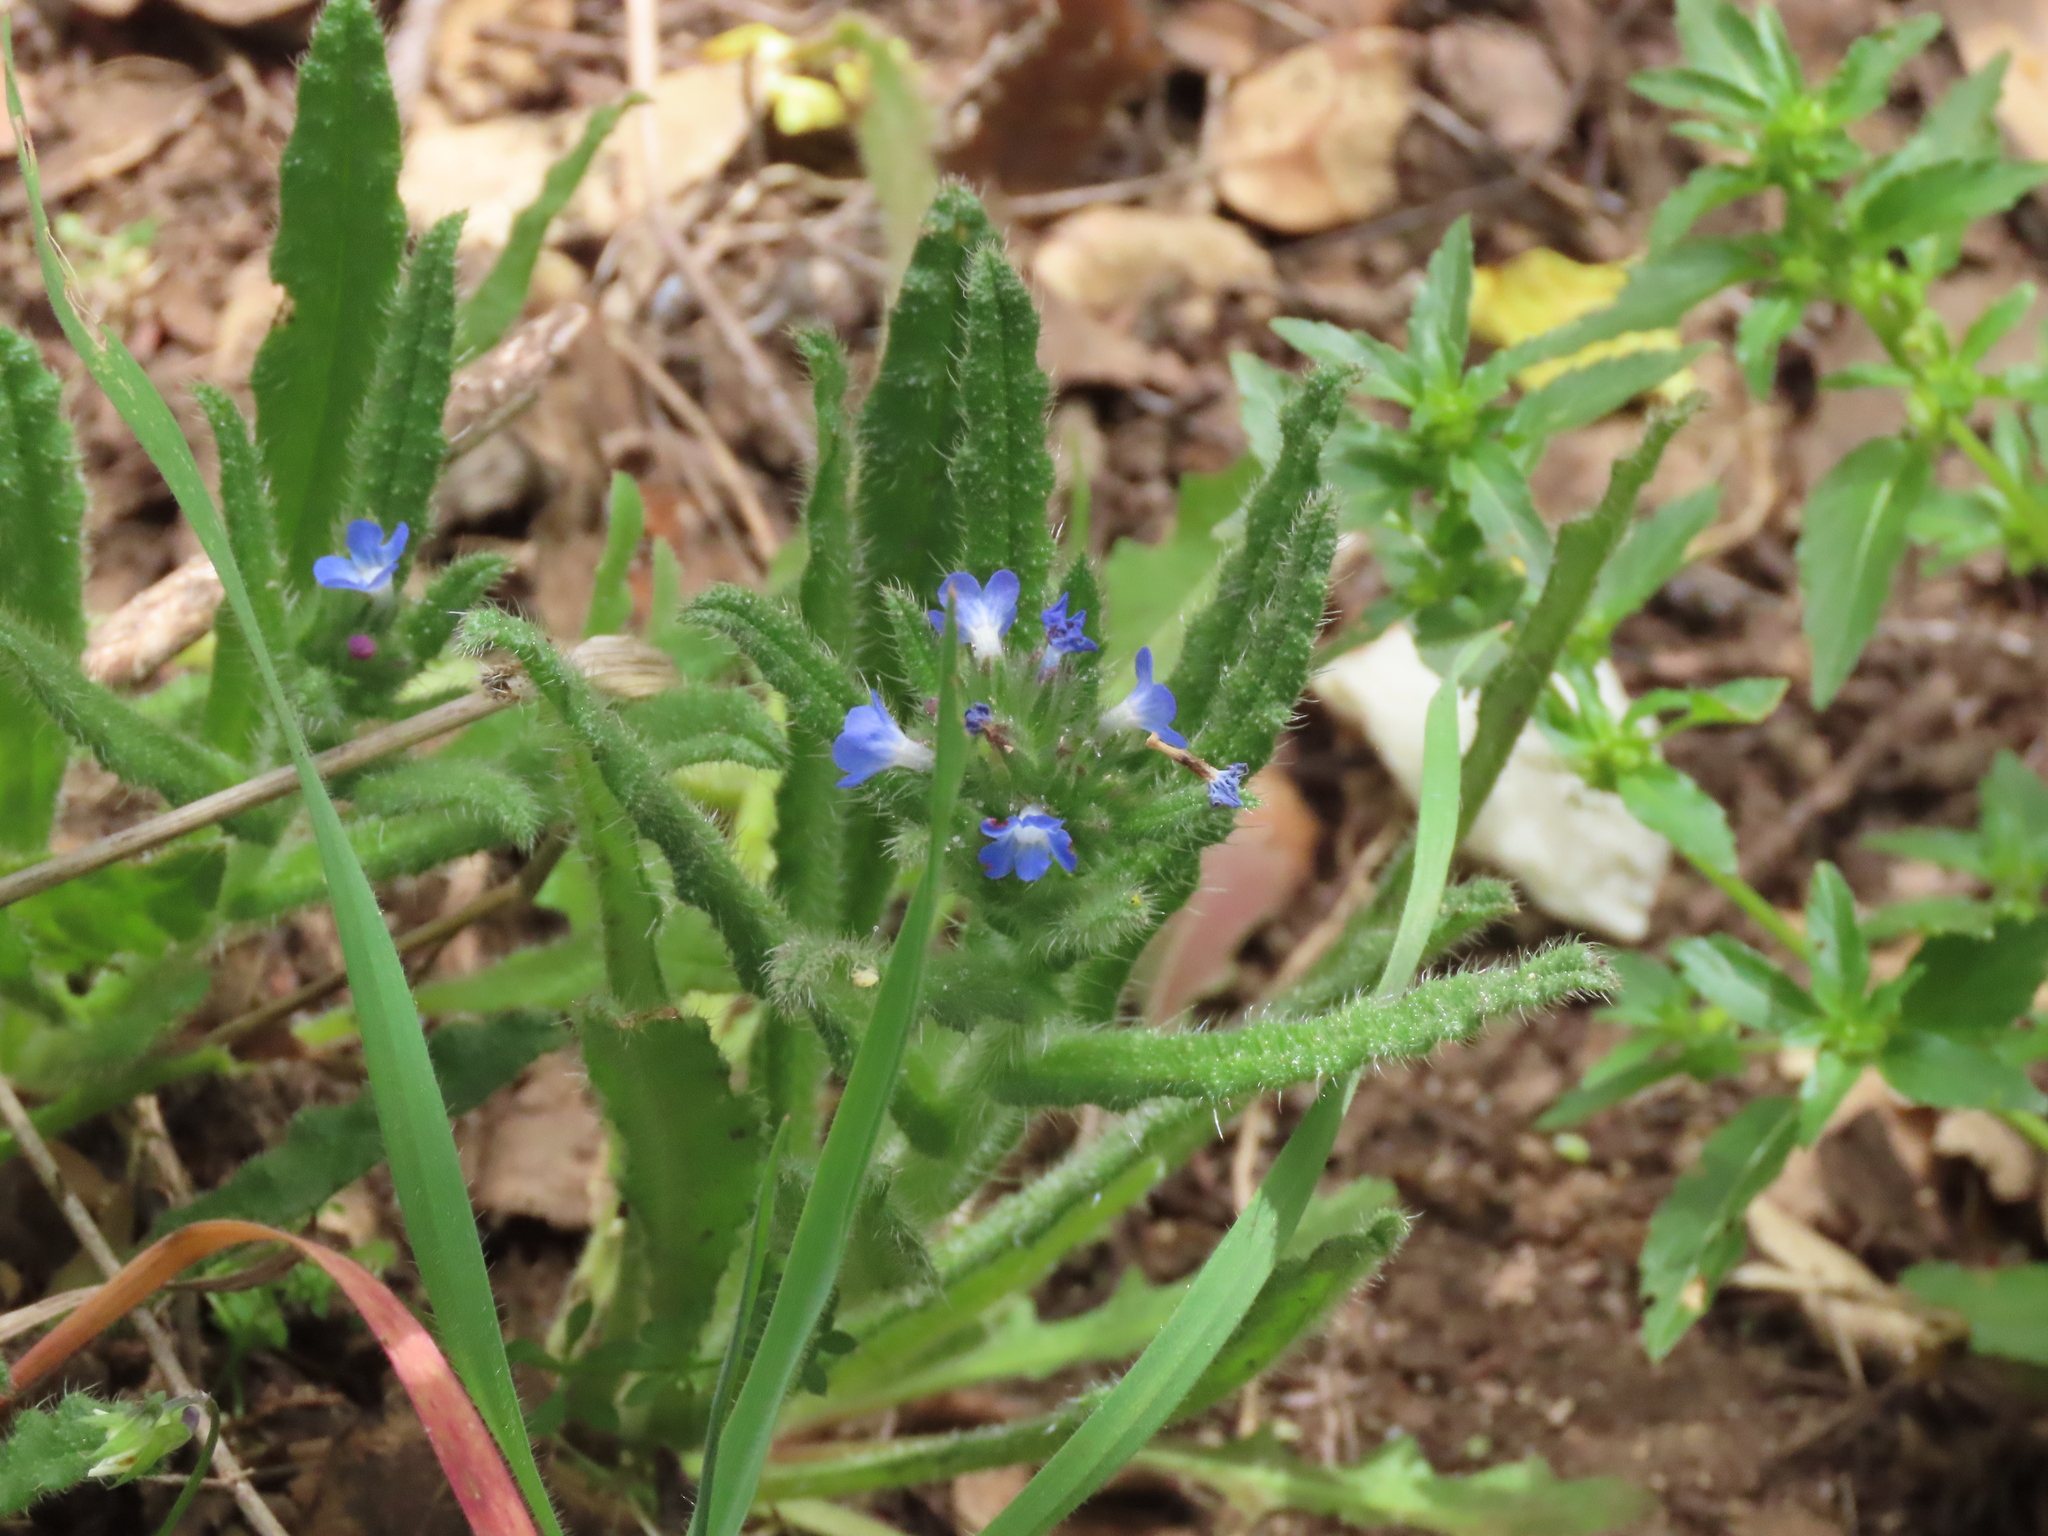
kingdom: Plantae
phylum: Tracheophyta
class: Magnoliopsida
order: Boraginales
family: Boraginaceae
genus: Lycopsis
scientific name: Lycopsis arvensis
